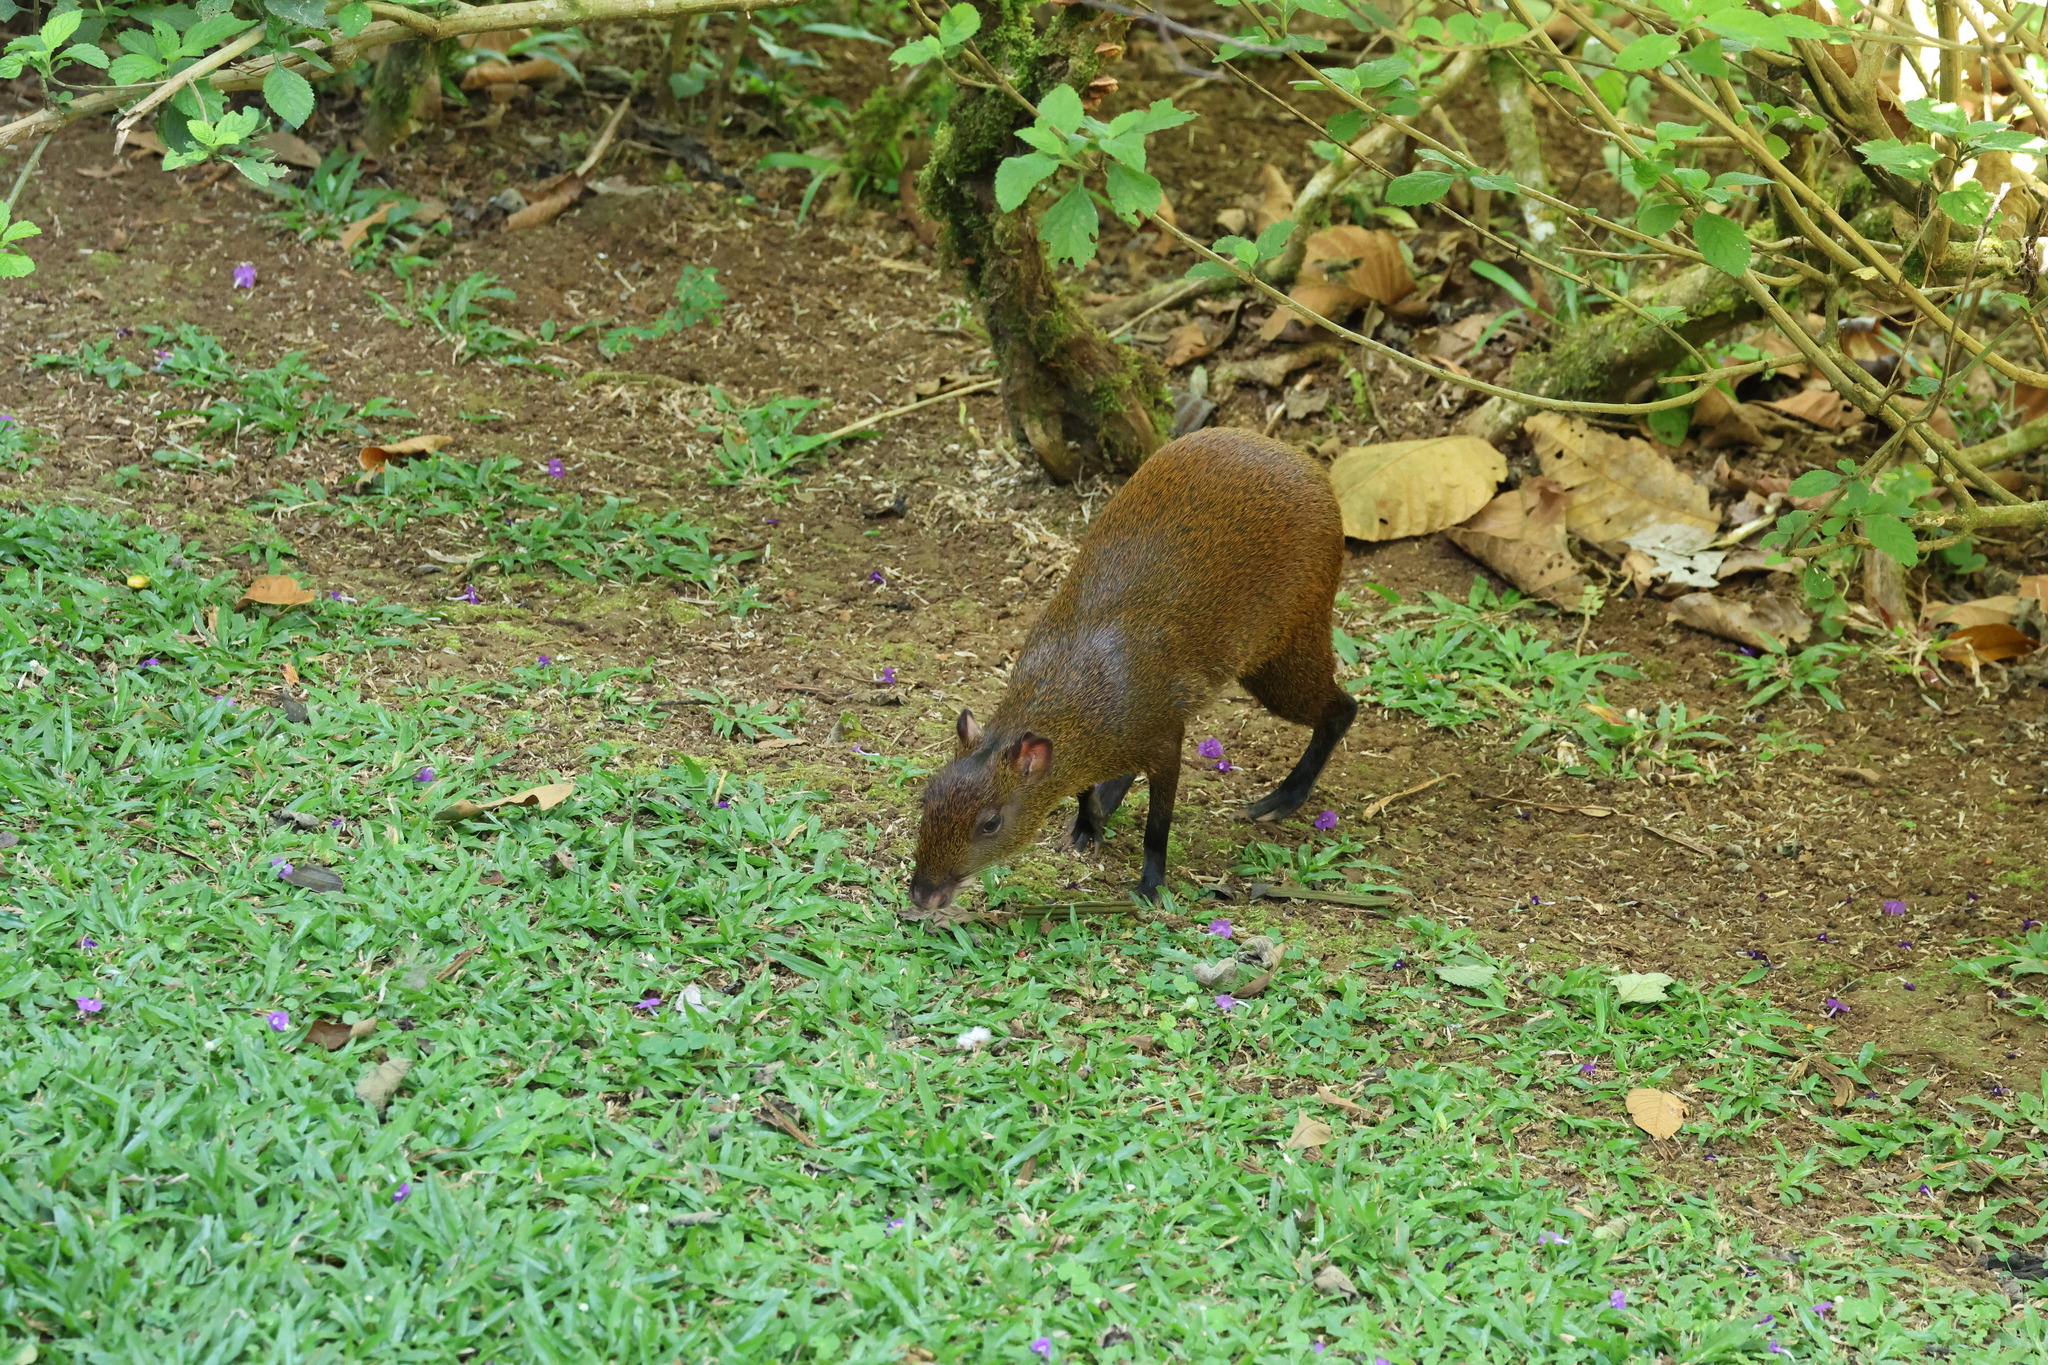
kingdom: Animalia
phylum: Chordata
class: Mammalia
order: Rodentia
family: Dasyproctidae
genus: Dasyprocta
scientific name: Dasyprocta punctata
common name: Central american agouti
